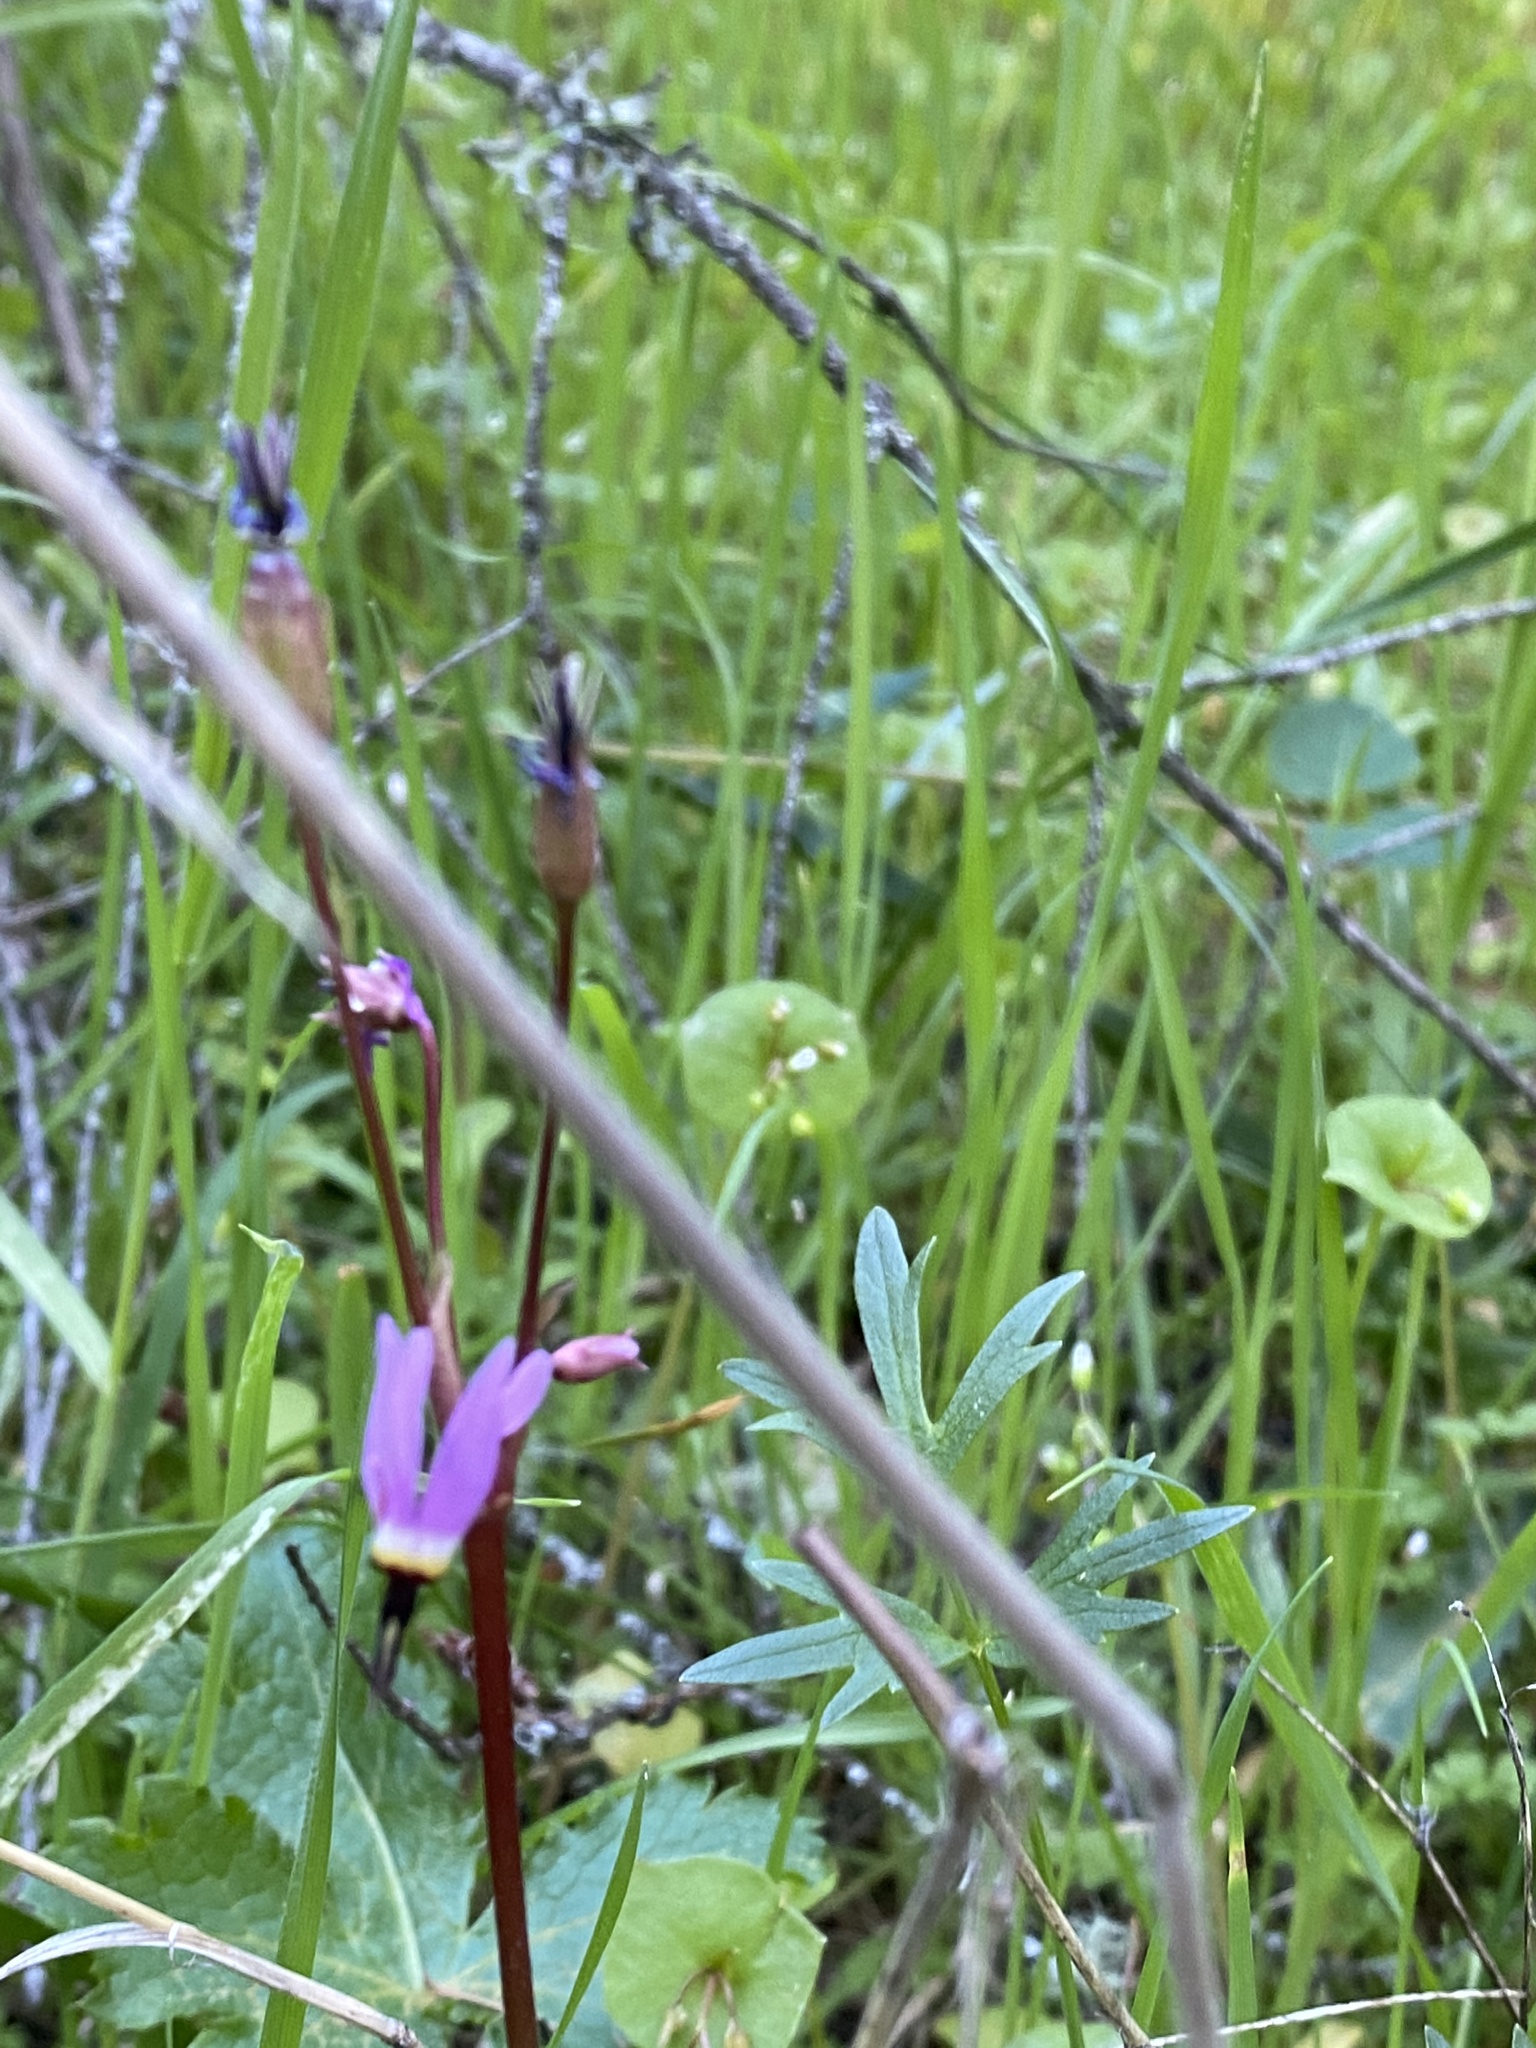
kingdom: Plantae
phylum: Tracheophyta
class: Magnoliopsida
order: Ericales
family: Primulaceae
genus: Dodecatheon
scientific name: Dodecatheon hendersonii
